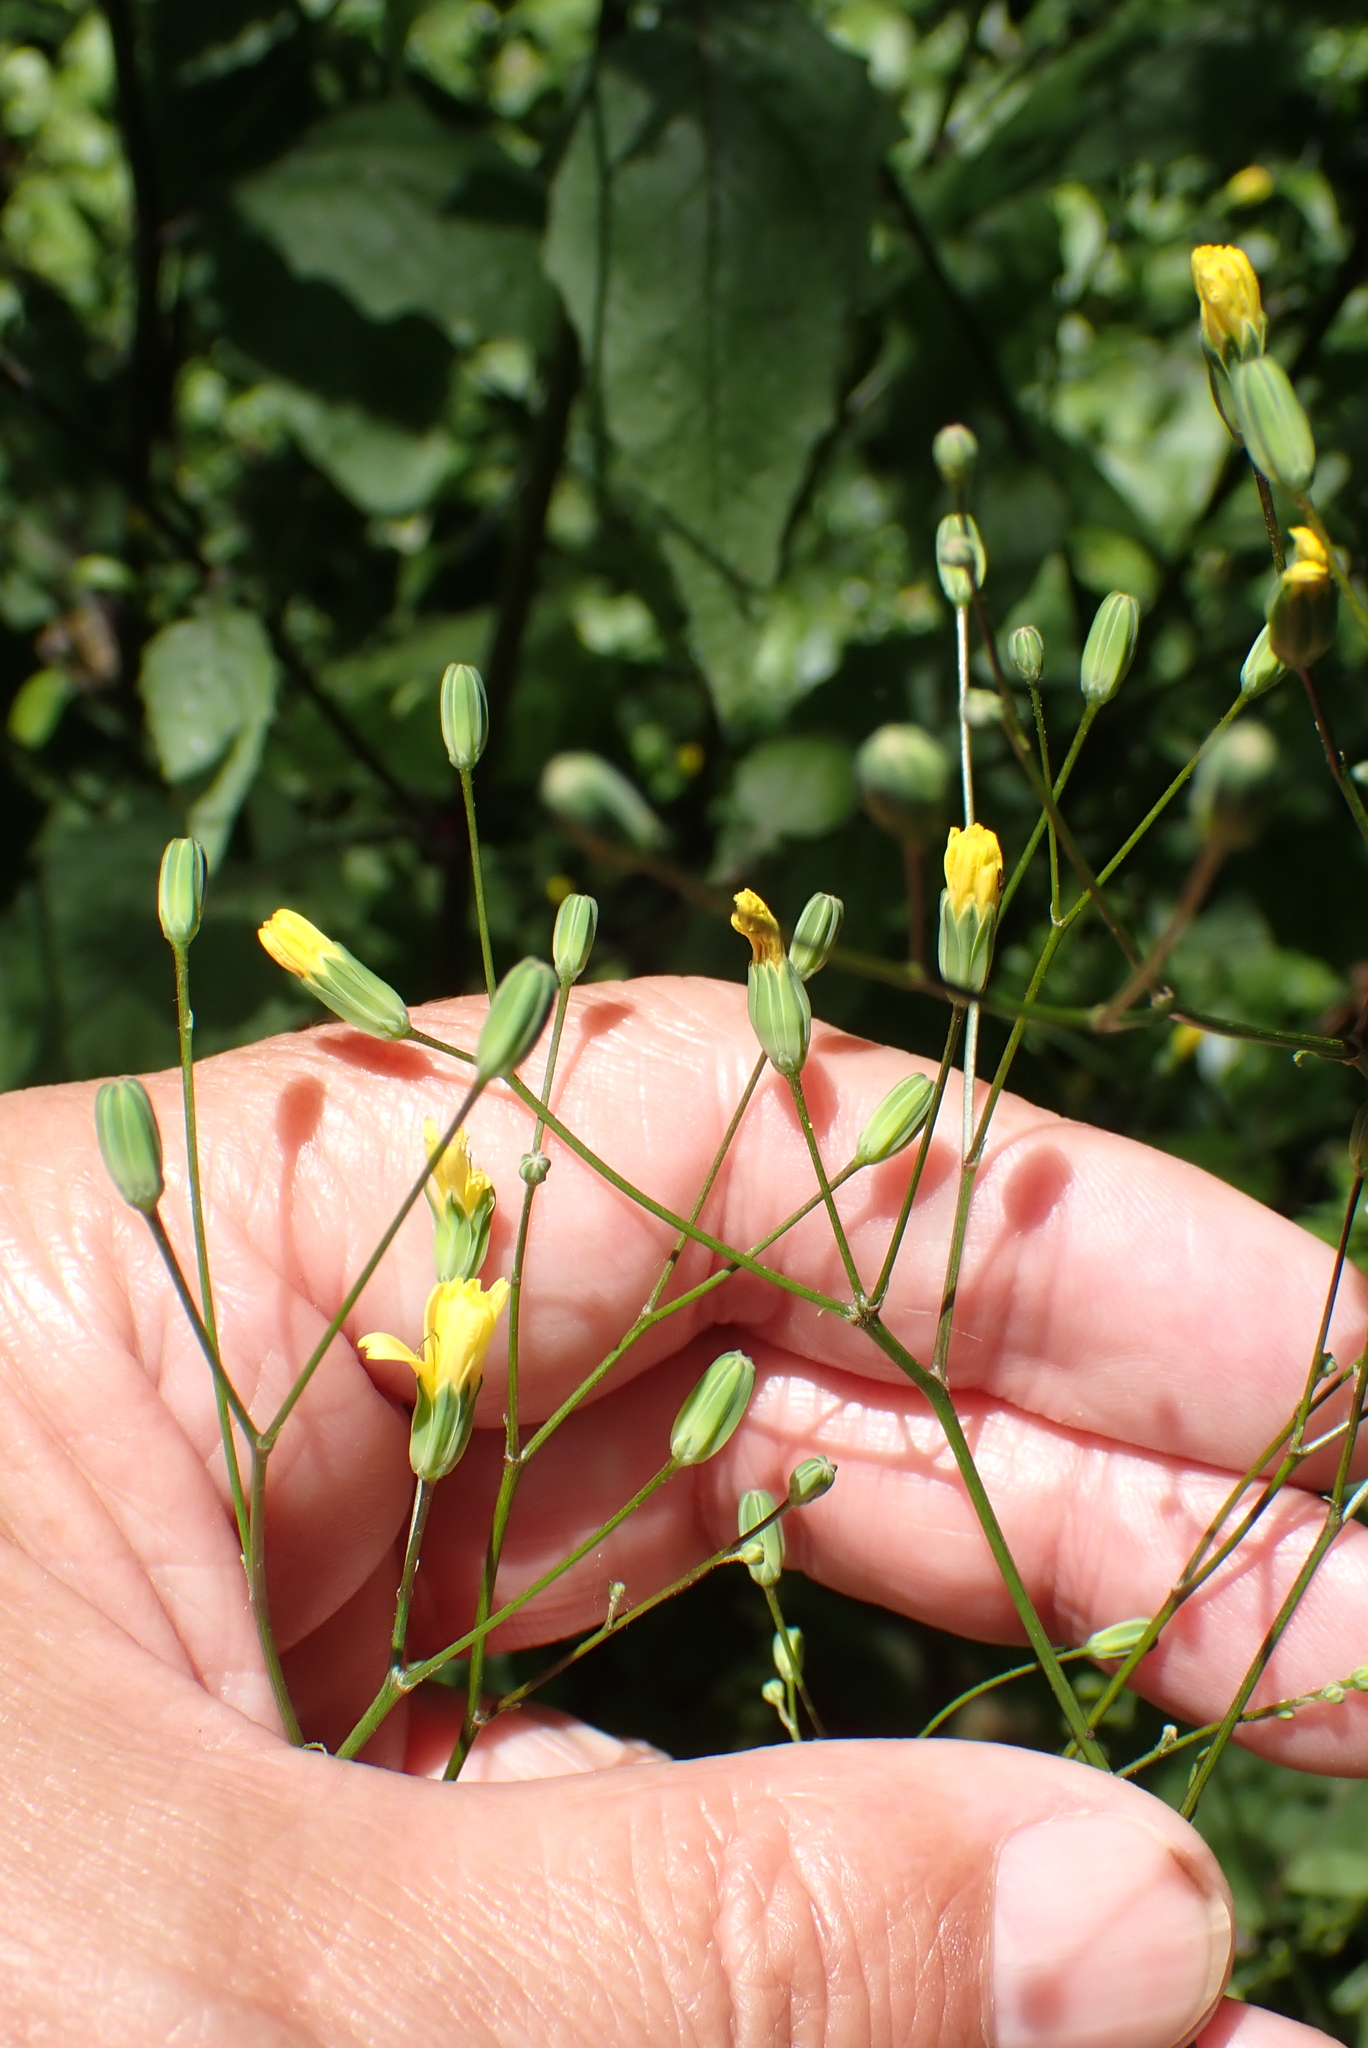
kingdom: Plantae
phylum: Tracheophyta
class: Magnoliopsida
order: Asterales
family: Asteraceae
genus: Lapsana
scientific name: Lapsana communis
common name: Nipplewort
